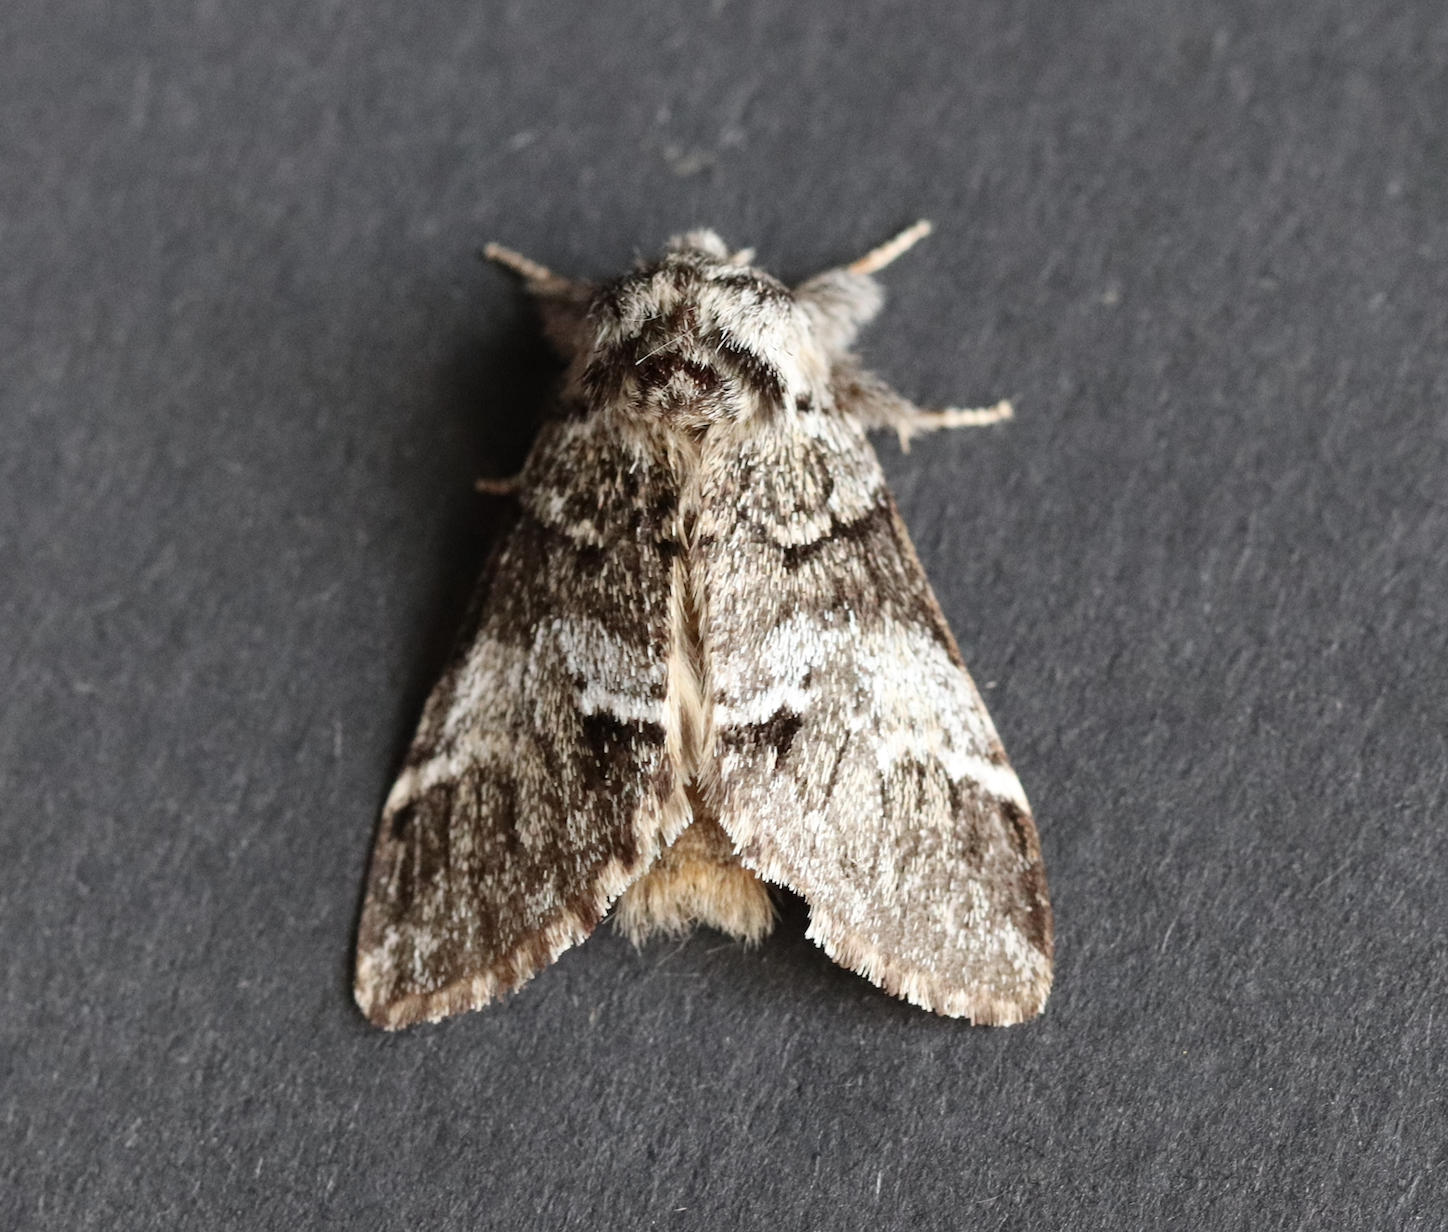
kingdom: Animalia
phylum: Arthropoda
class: Insecta
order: Lepidoptera
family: Notodontidae
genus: Drymonia
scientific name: Drymonia dodonaea
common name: Marbled brown
